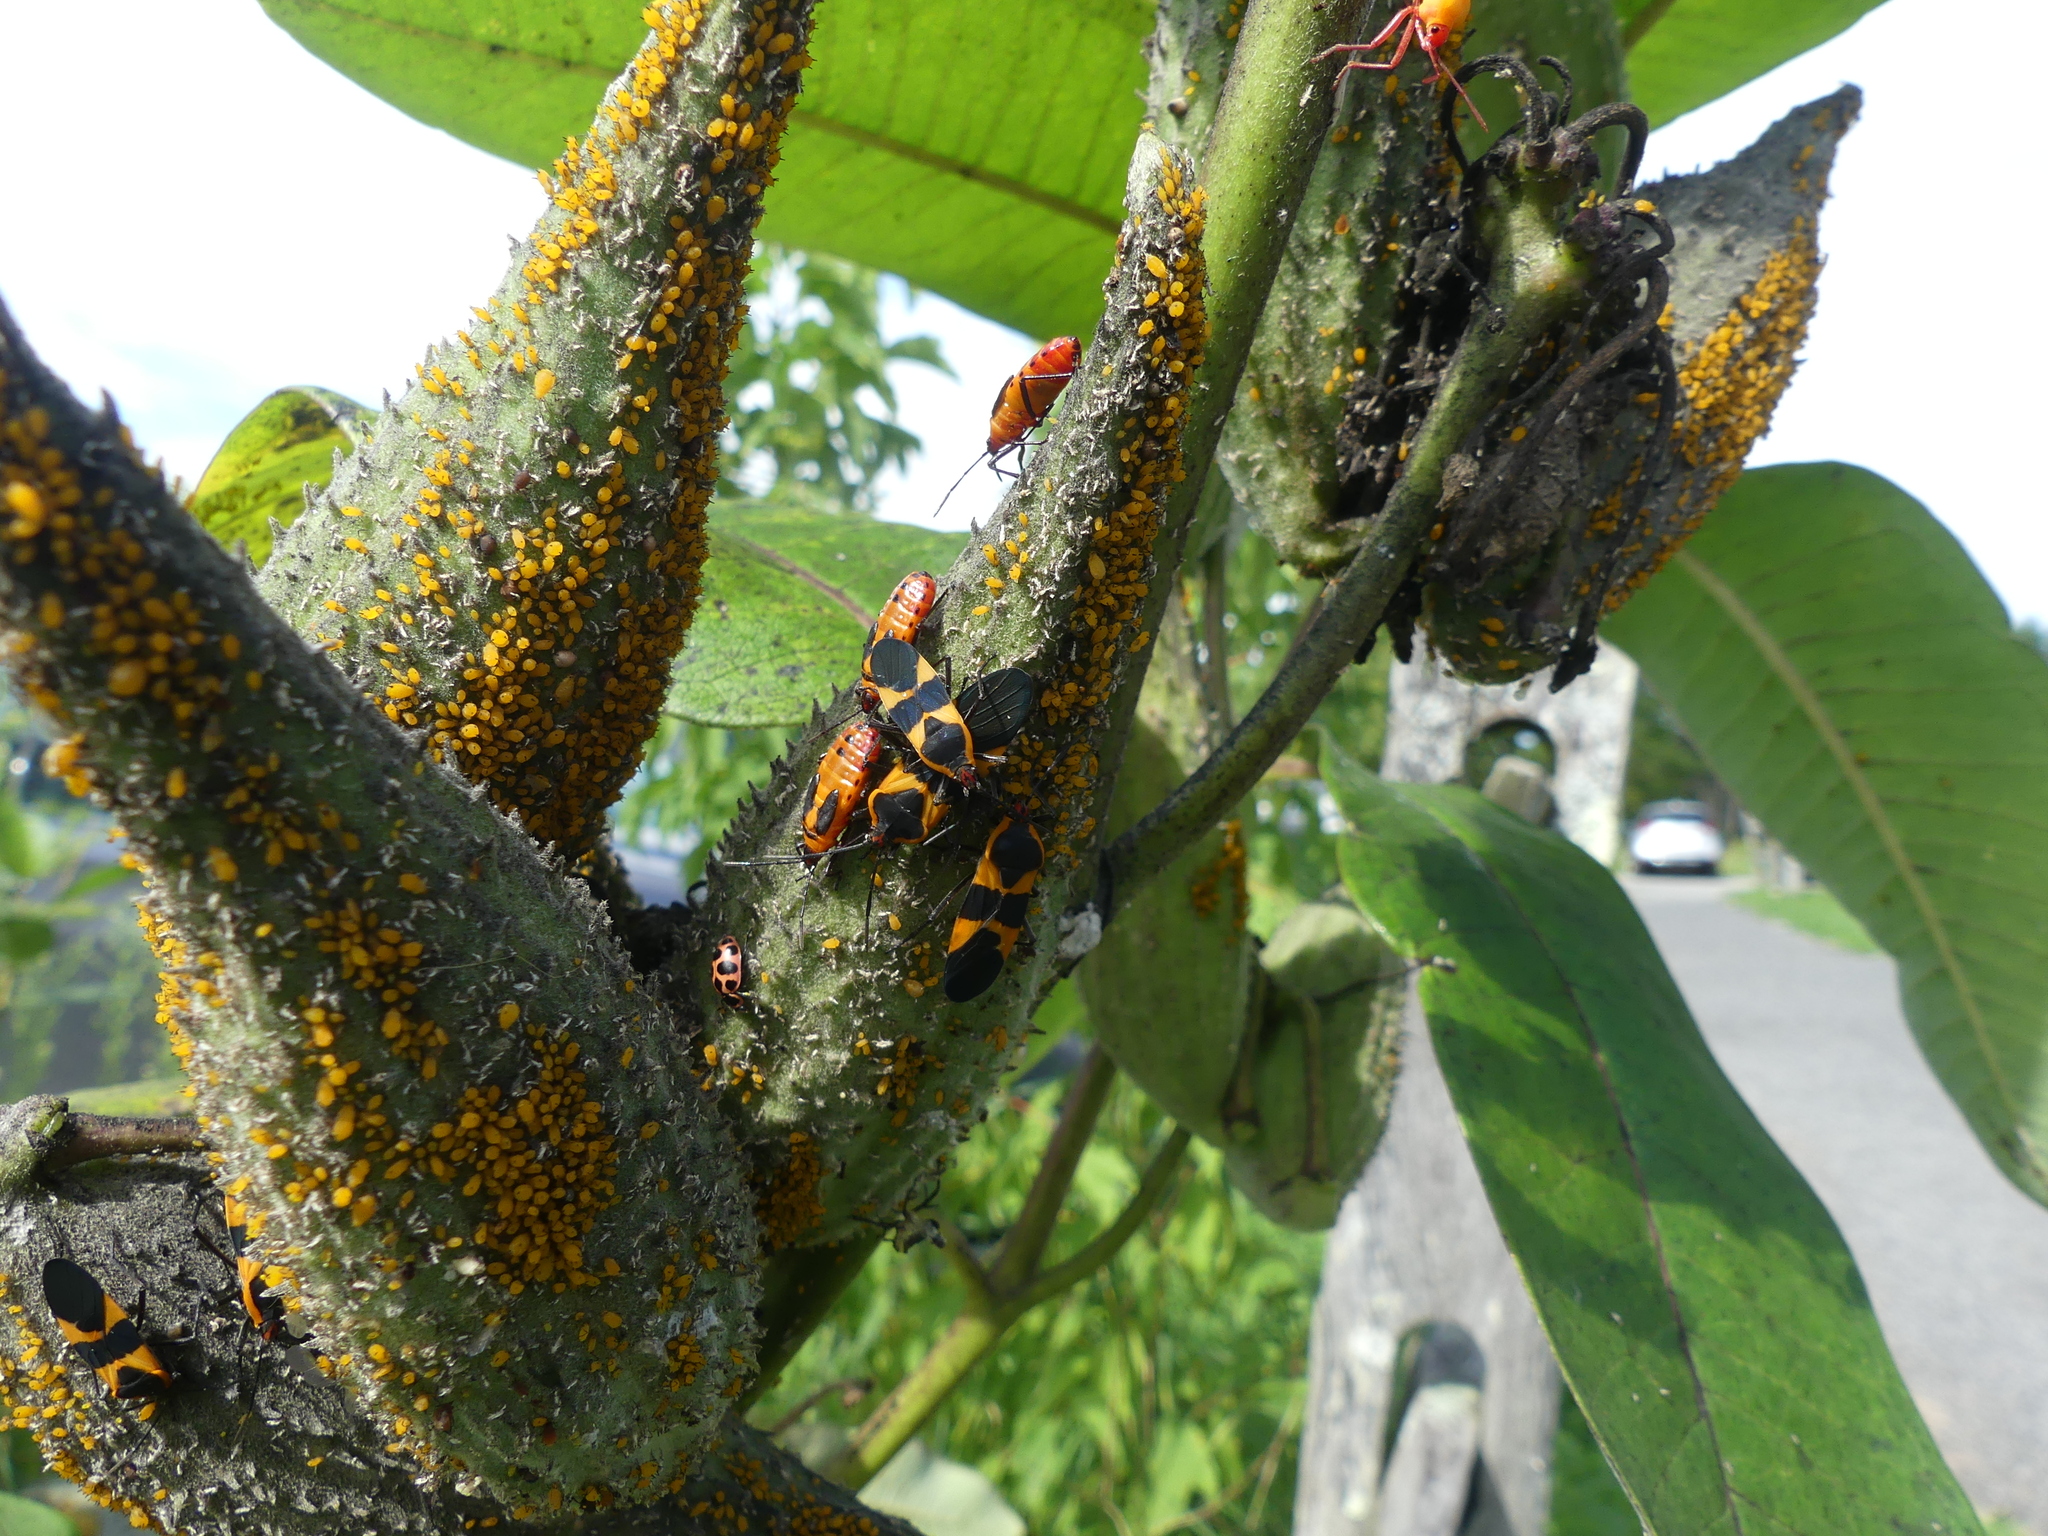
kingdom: Animalia
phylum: Arthropoda
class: Insecta
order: Hemiptera
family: Lygaeidae
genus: Oncopeltus
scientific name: Oncopeltus fasciatus
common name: Large milkweed bug
